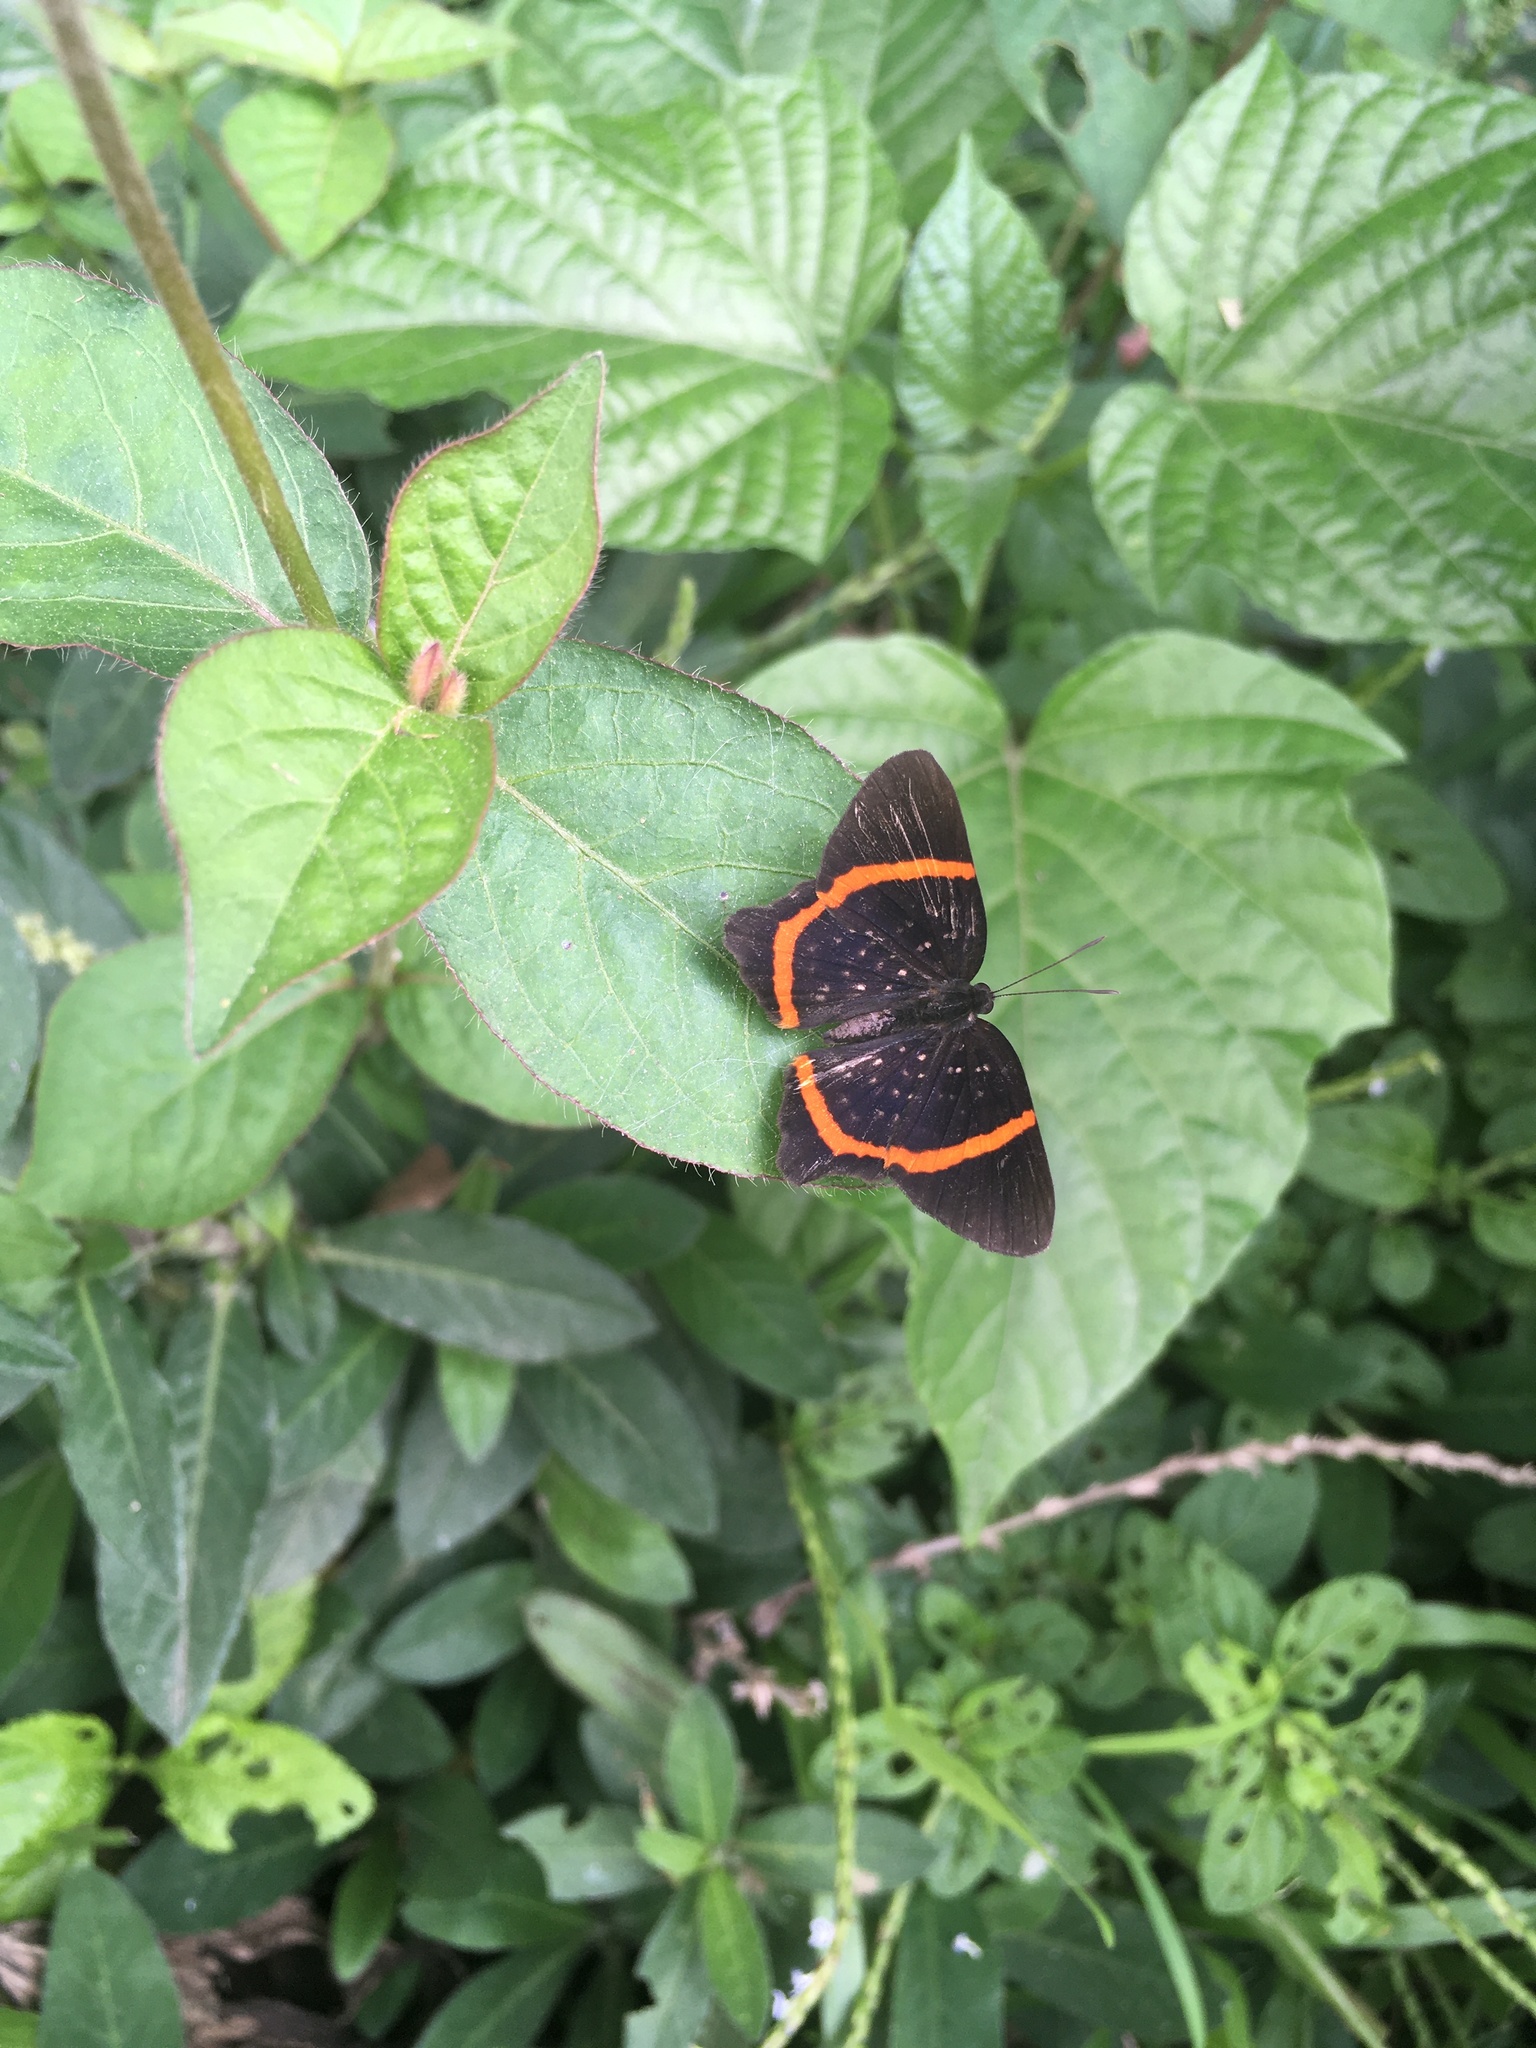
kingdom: Animalia
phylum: Arthropoda
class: Insecta
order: Lepidoptera
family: Riodinidae
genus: Riodina
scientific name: Riodina lysippus
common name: Lysippus metalmark
